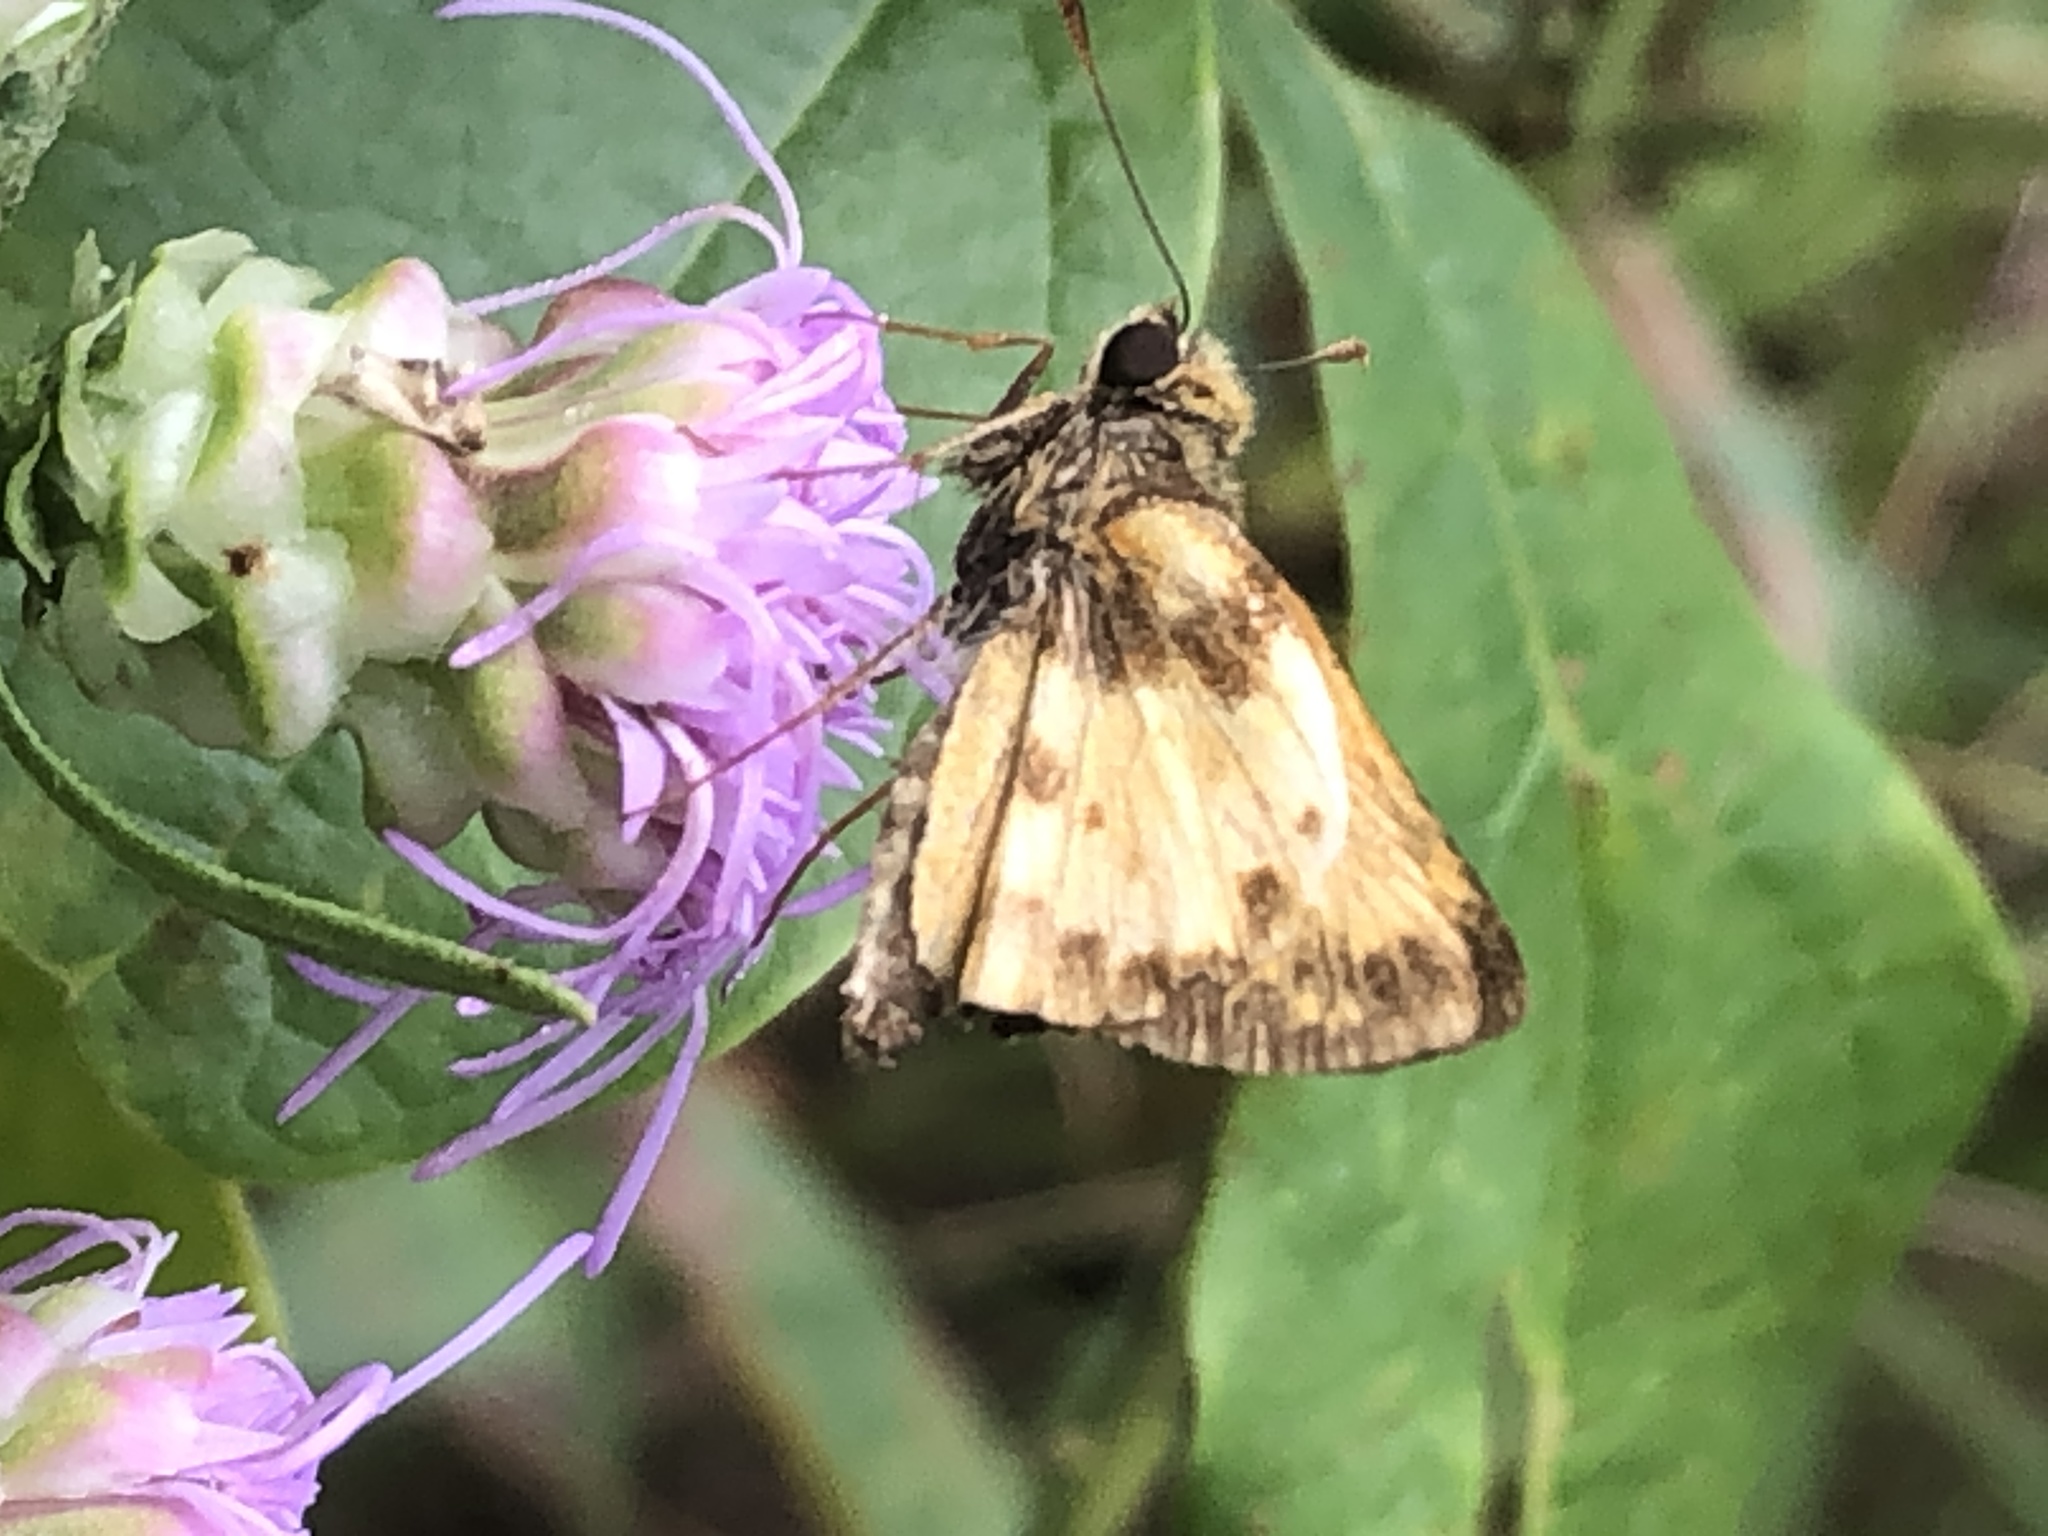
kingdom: Animalia
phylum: Arthropoda
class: Insecta
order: Lepidoptera
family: Hesperiidae
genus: Lon
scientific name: Lon zabulon
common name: Zabulon skipper
